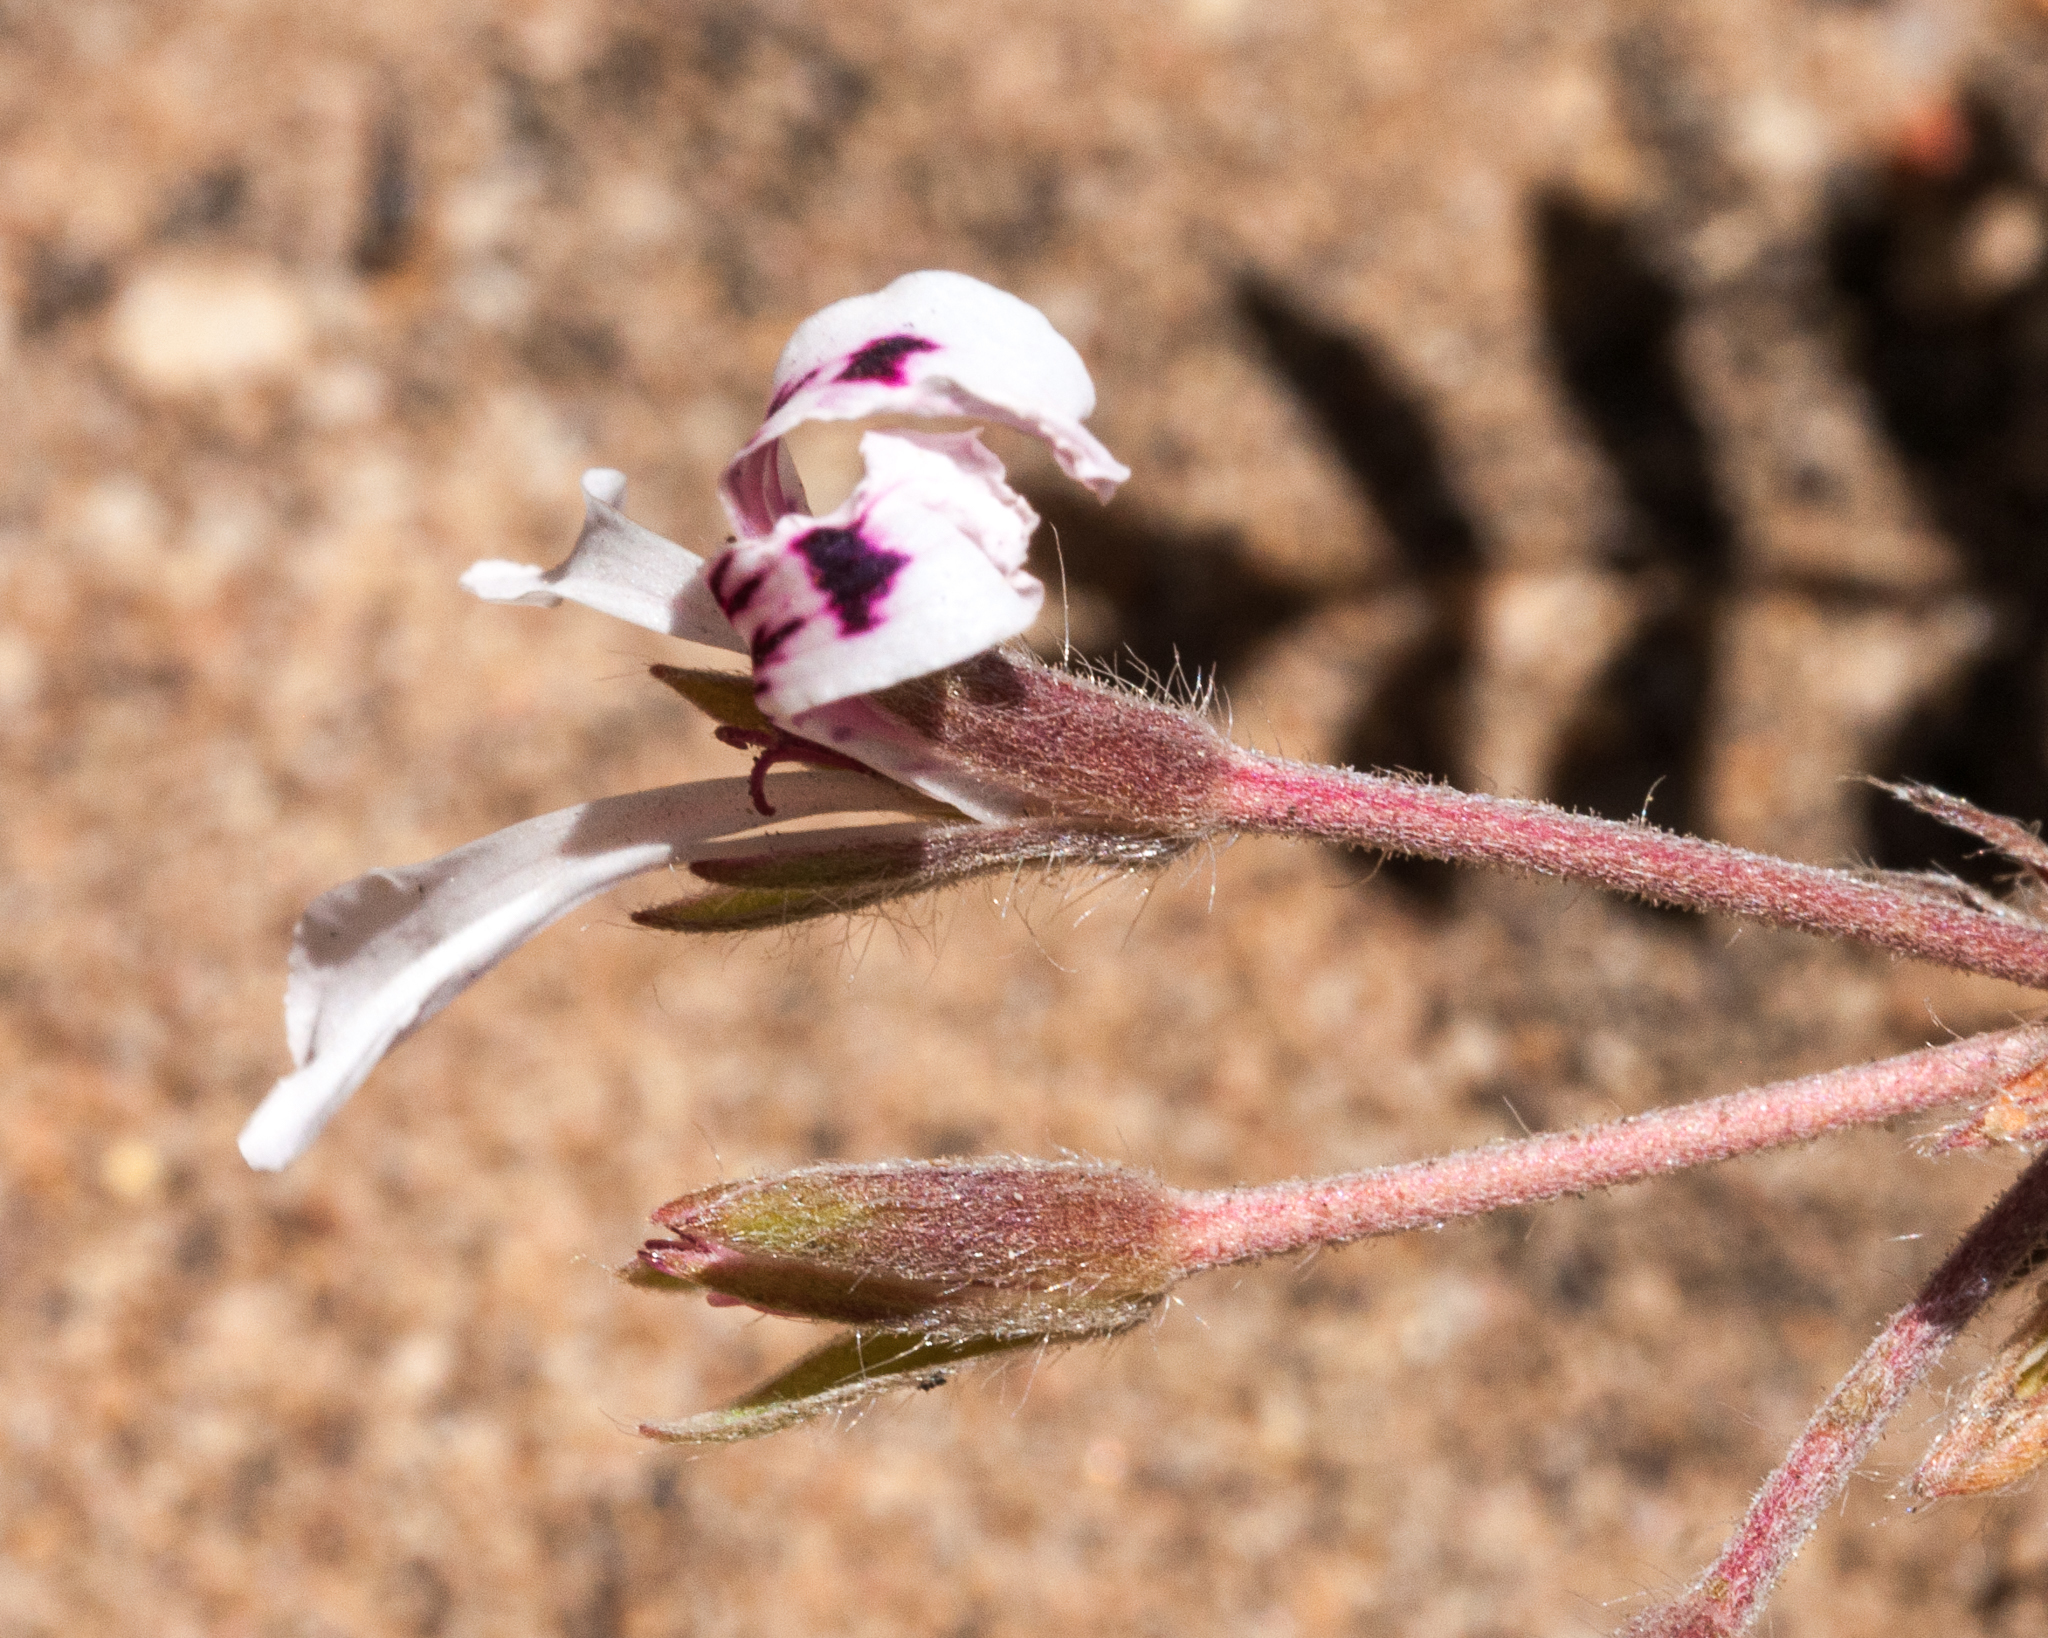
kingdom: Plantae
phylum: Tracheophyta
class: Magnoliopsida
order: Geraniales
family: Geraniaceae
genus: Pelargonium
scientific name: Pelargonium trifoliolatum
